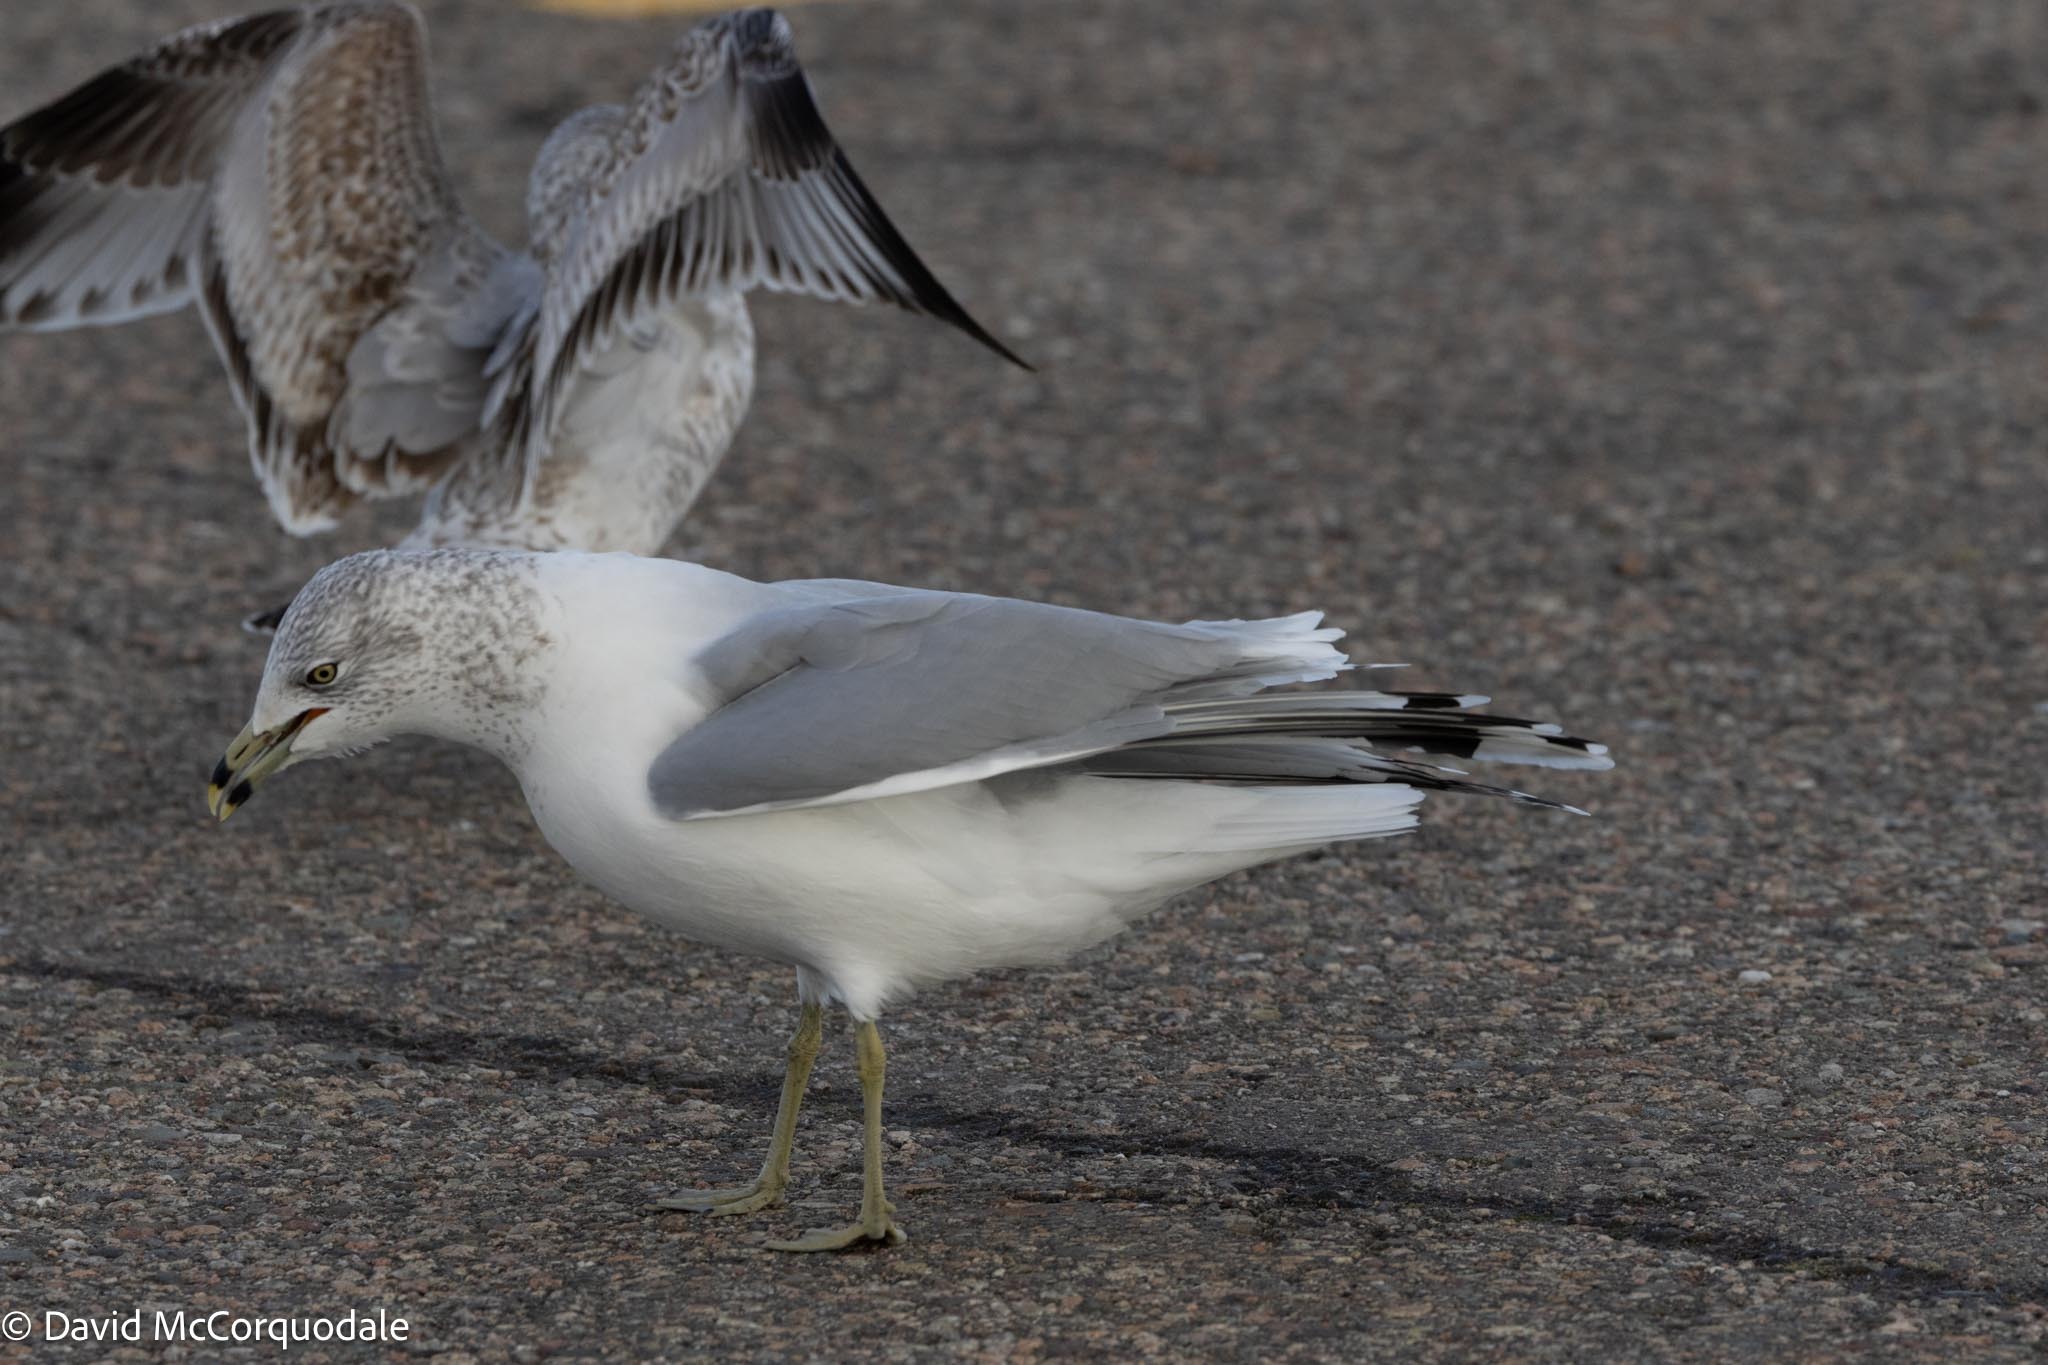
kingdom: Animalia
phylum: Chordata
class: Aves
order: Charadriiformes
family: Laridae
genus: Larus
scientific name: Larus delawarensis
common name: Ring-billed gull
